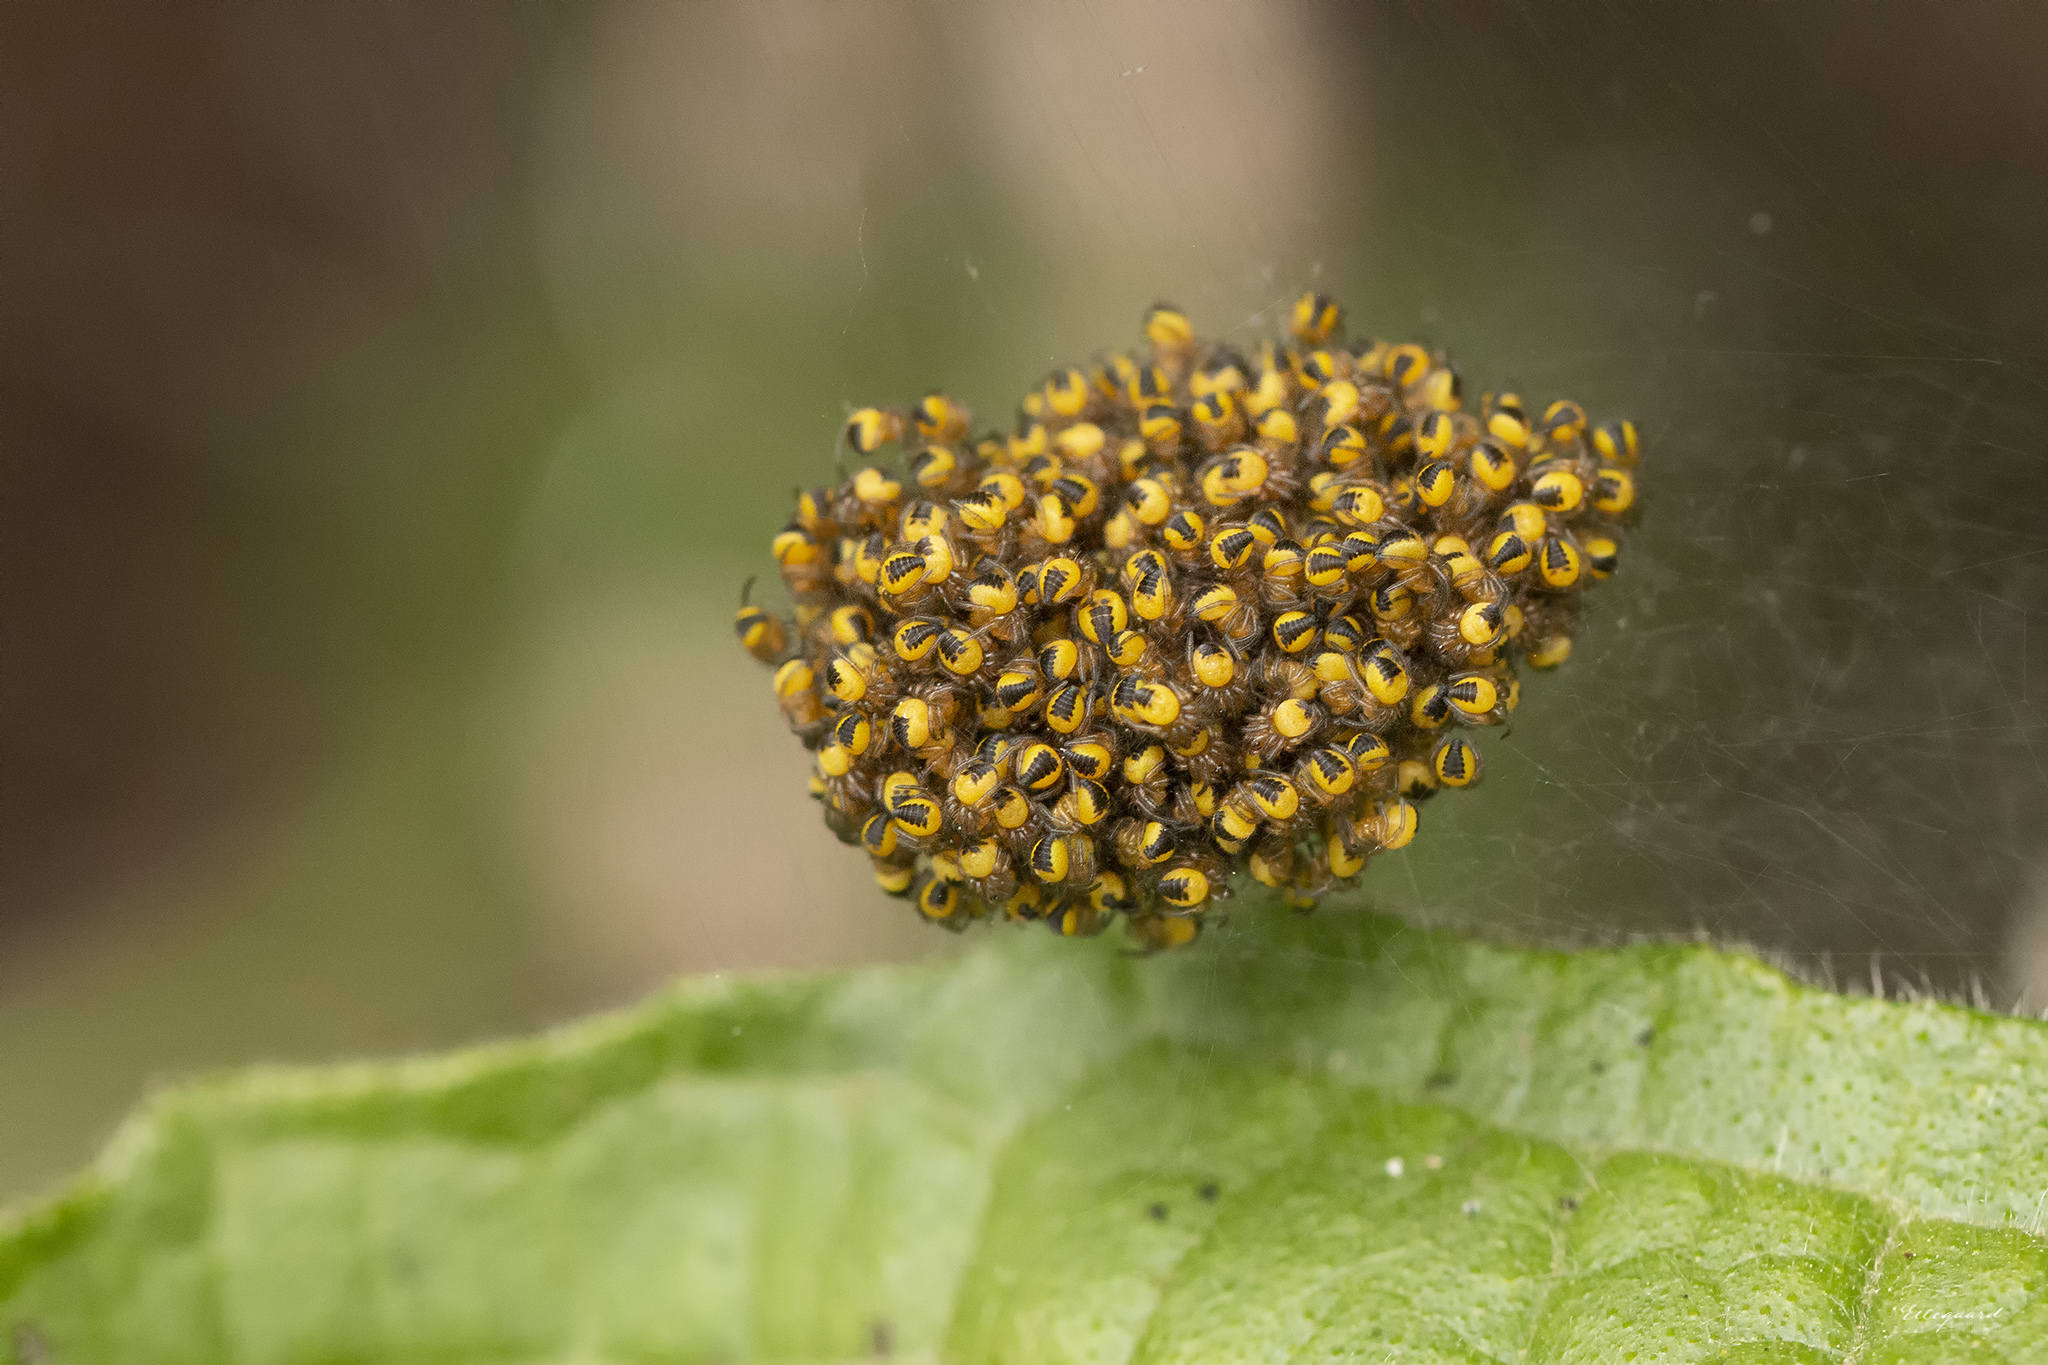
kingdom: Animalia
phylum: Arthropoda
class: Arachnida
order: Araneae
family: Araneidae
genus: Araneus
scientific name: Araneus diadematus
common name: Cross orbweaver
